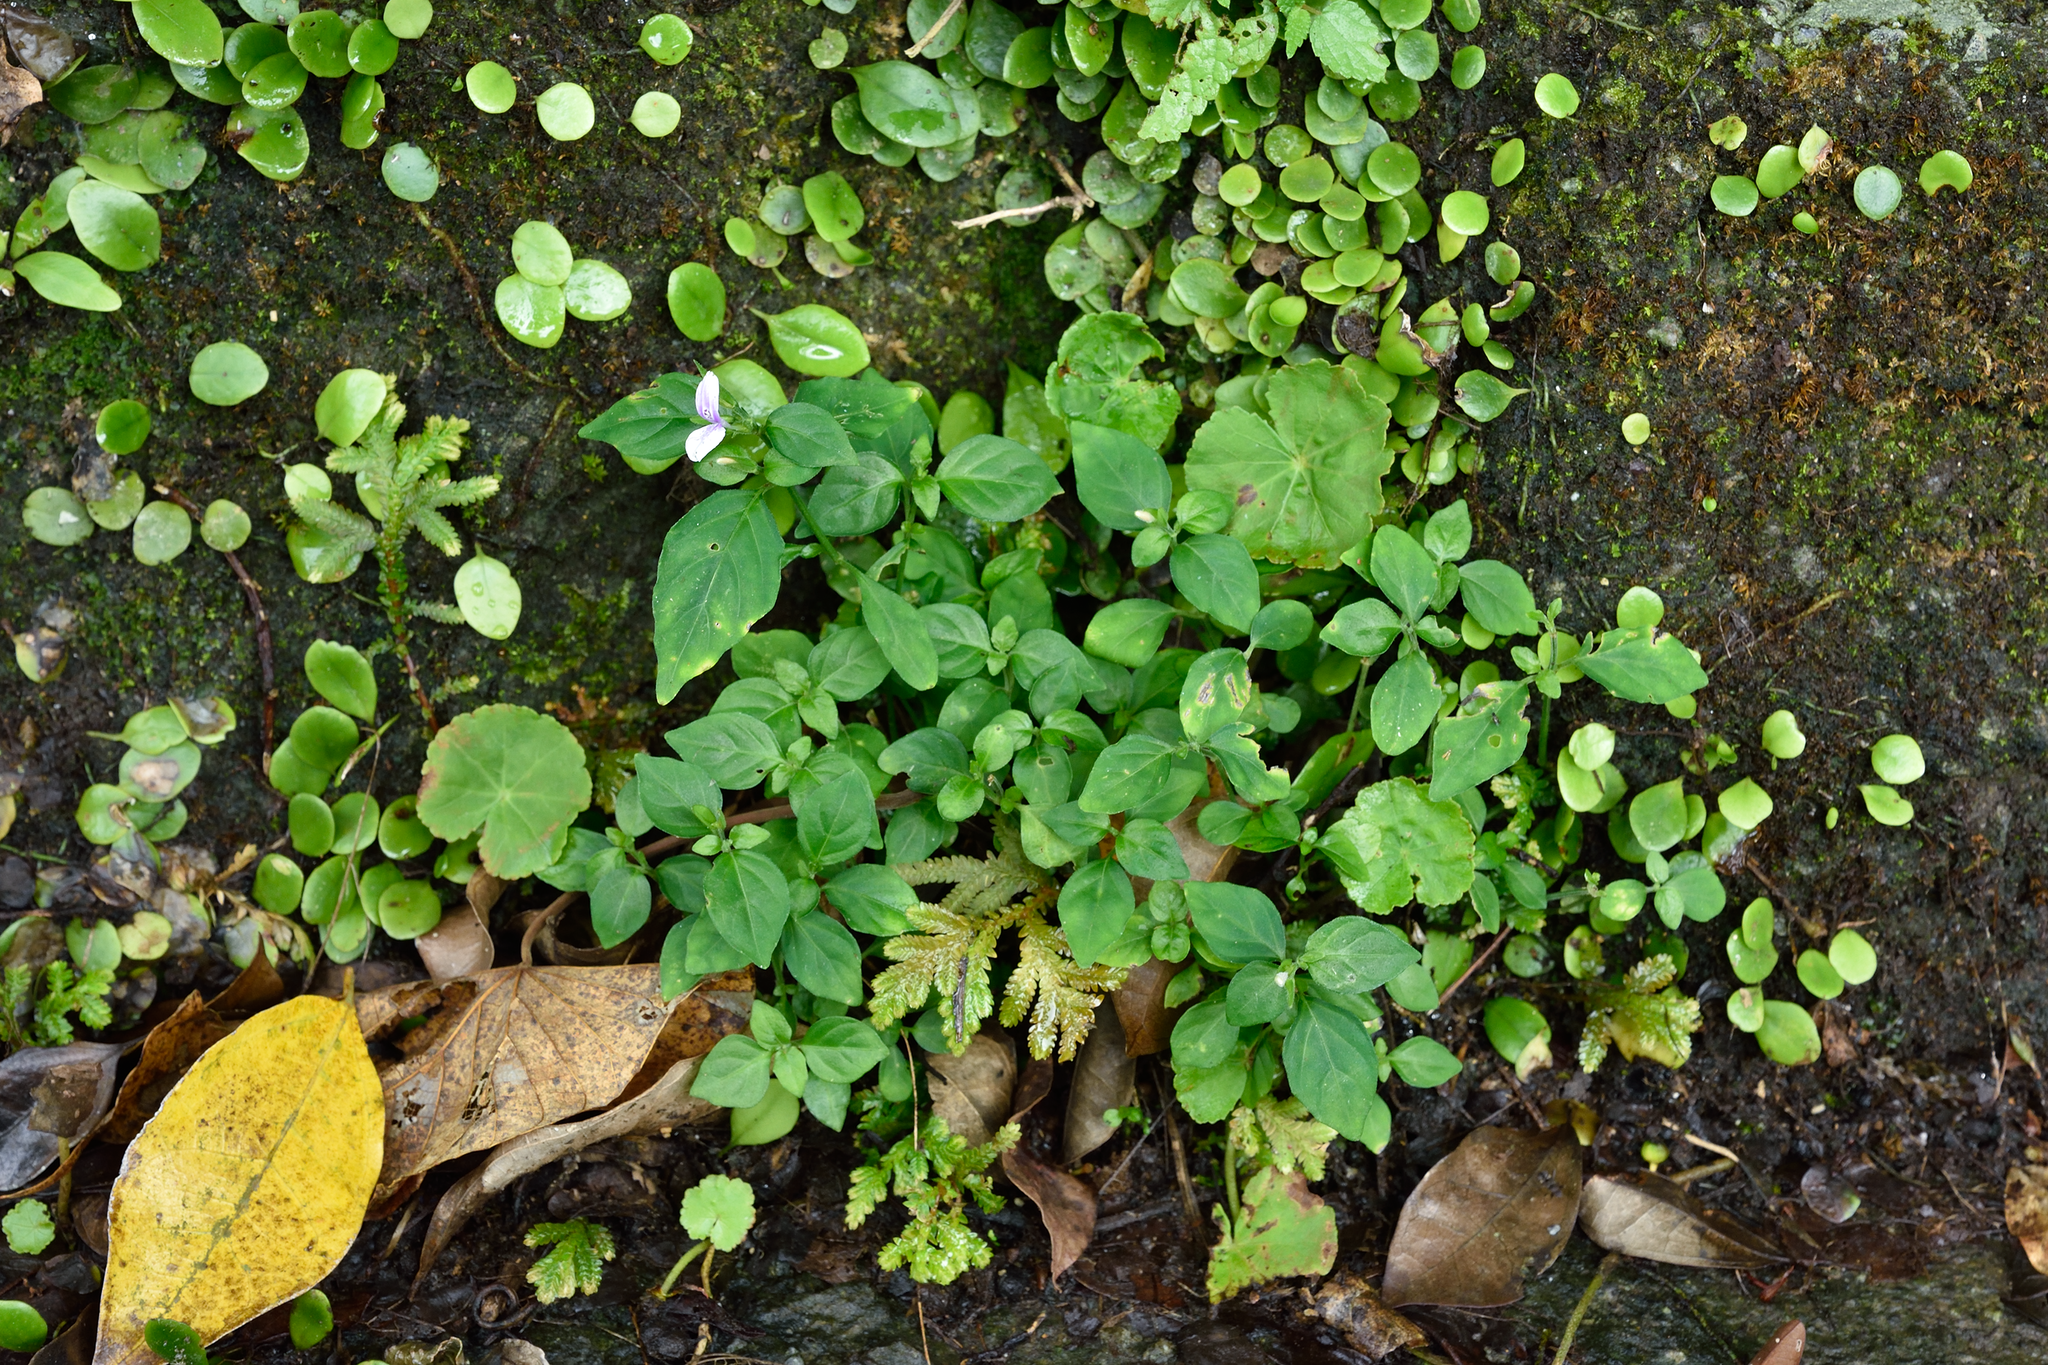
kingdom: Plantae
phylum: Tracheophyta
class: Magnoliopsida
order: Lamiales
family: Acanthaceae
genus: Dicliptera
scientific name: Dicliptera japonica
